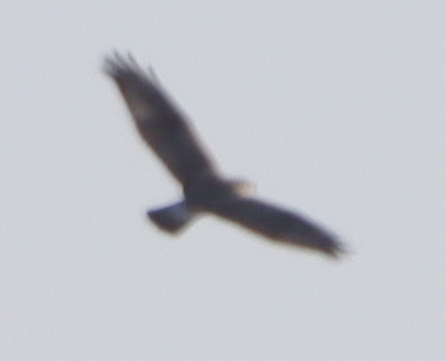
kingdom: Animalia
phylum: Chordata
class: Aves
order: Accipitriformes
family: Accipitridae
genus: Buteo
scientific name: Buteo lagopus
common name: Rough-legged buzzard
